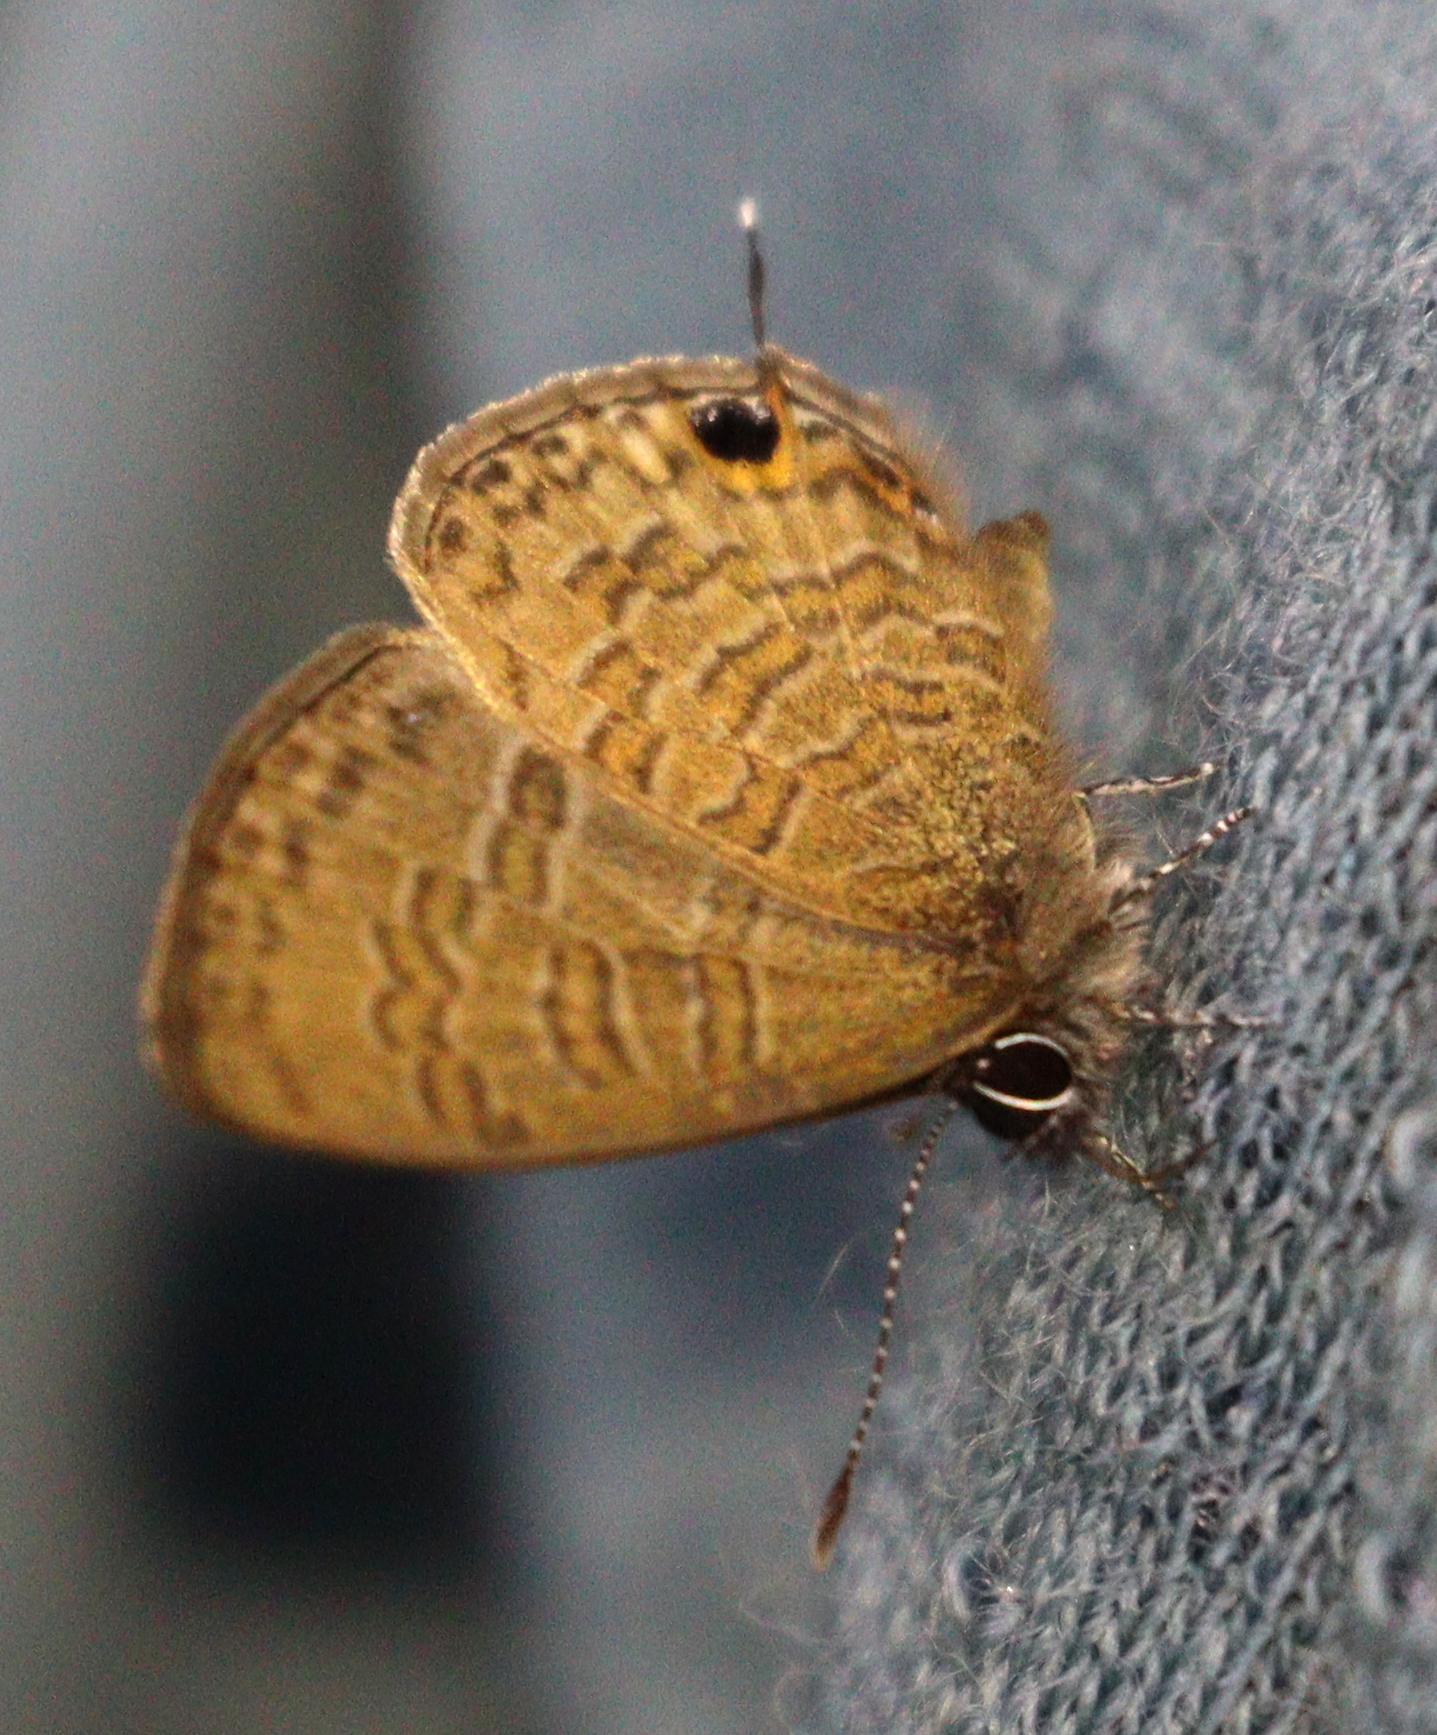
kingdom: Animalia
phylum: Arthropoda
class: Insecta
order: Lepidoptera
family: Lycaenidae
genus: Prosotas
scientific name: Prosotas nora
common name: Common line blue
